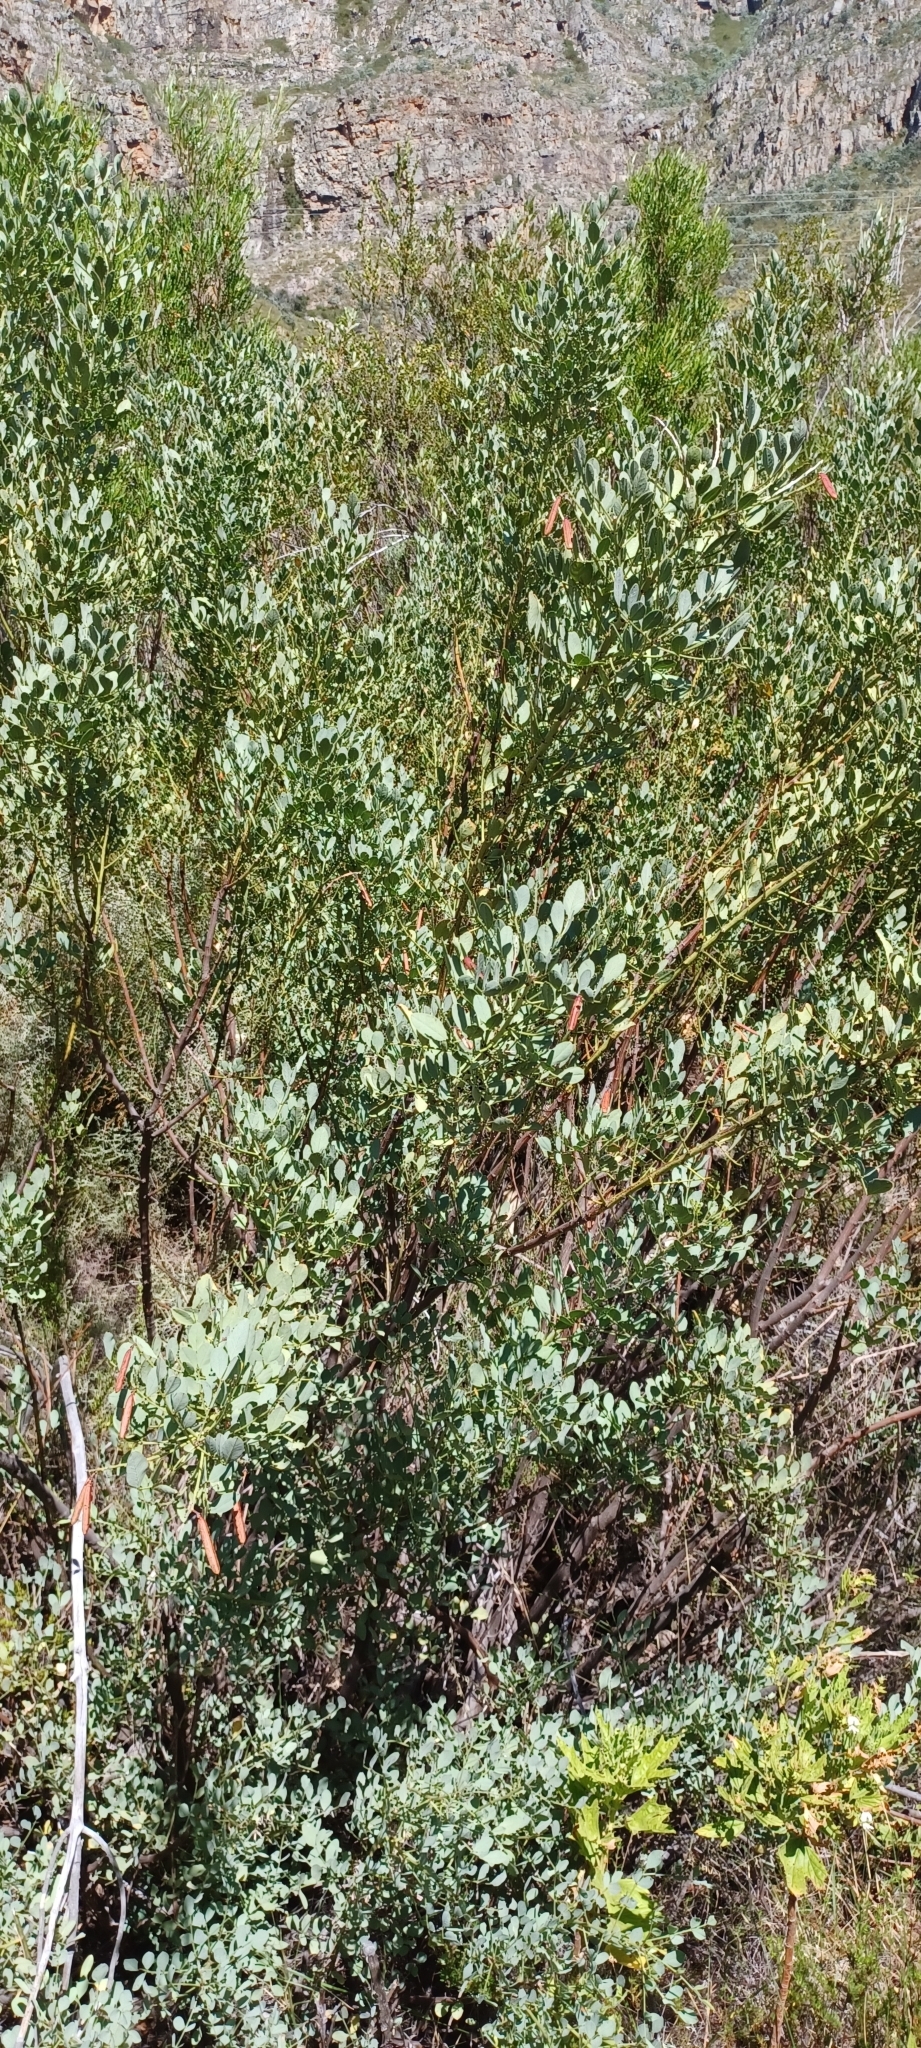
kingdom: Plantae
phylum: Tracheophyta
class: Magnoliopsida
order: Fabales
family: Fabaceae
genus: Indigofera
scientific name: Indigofera frutescens
